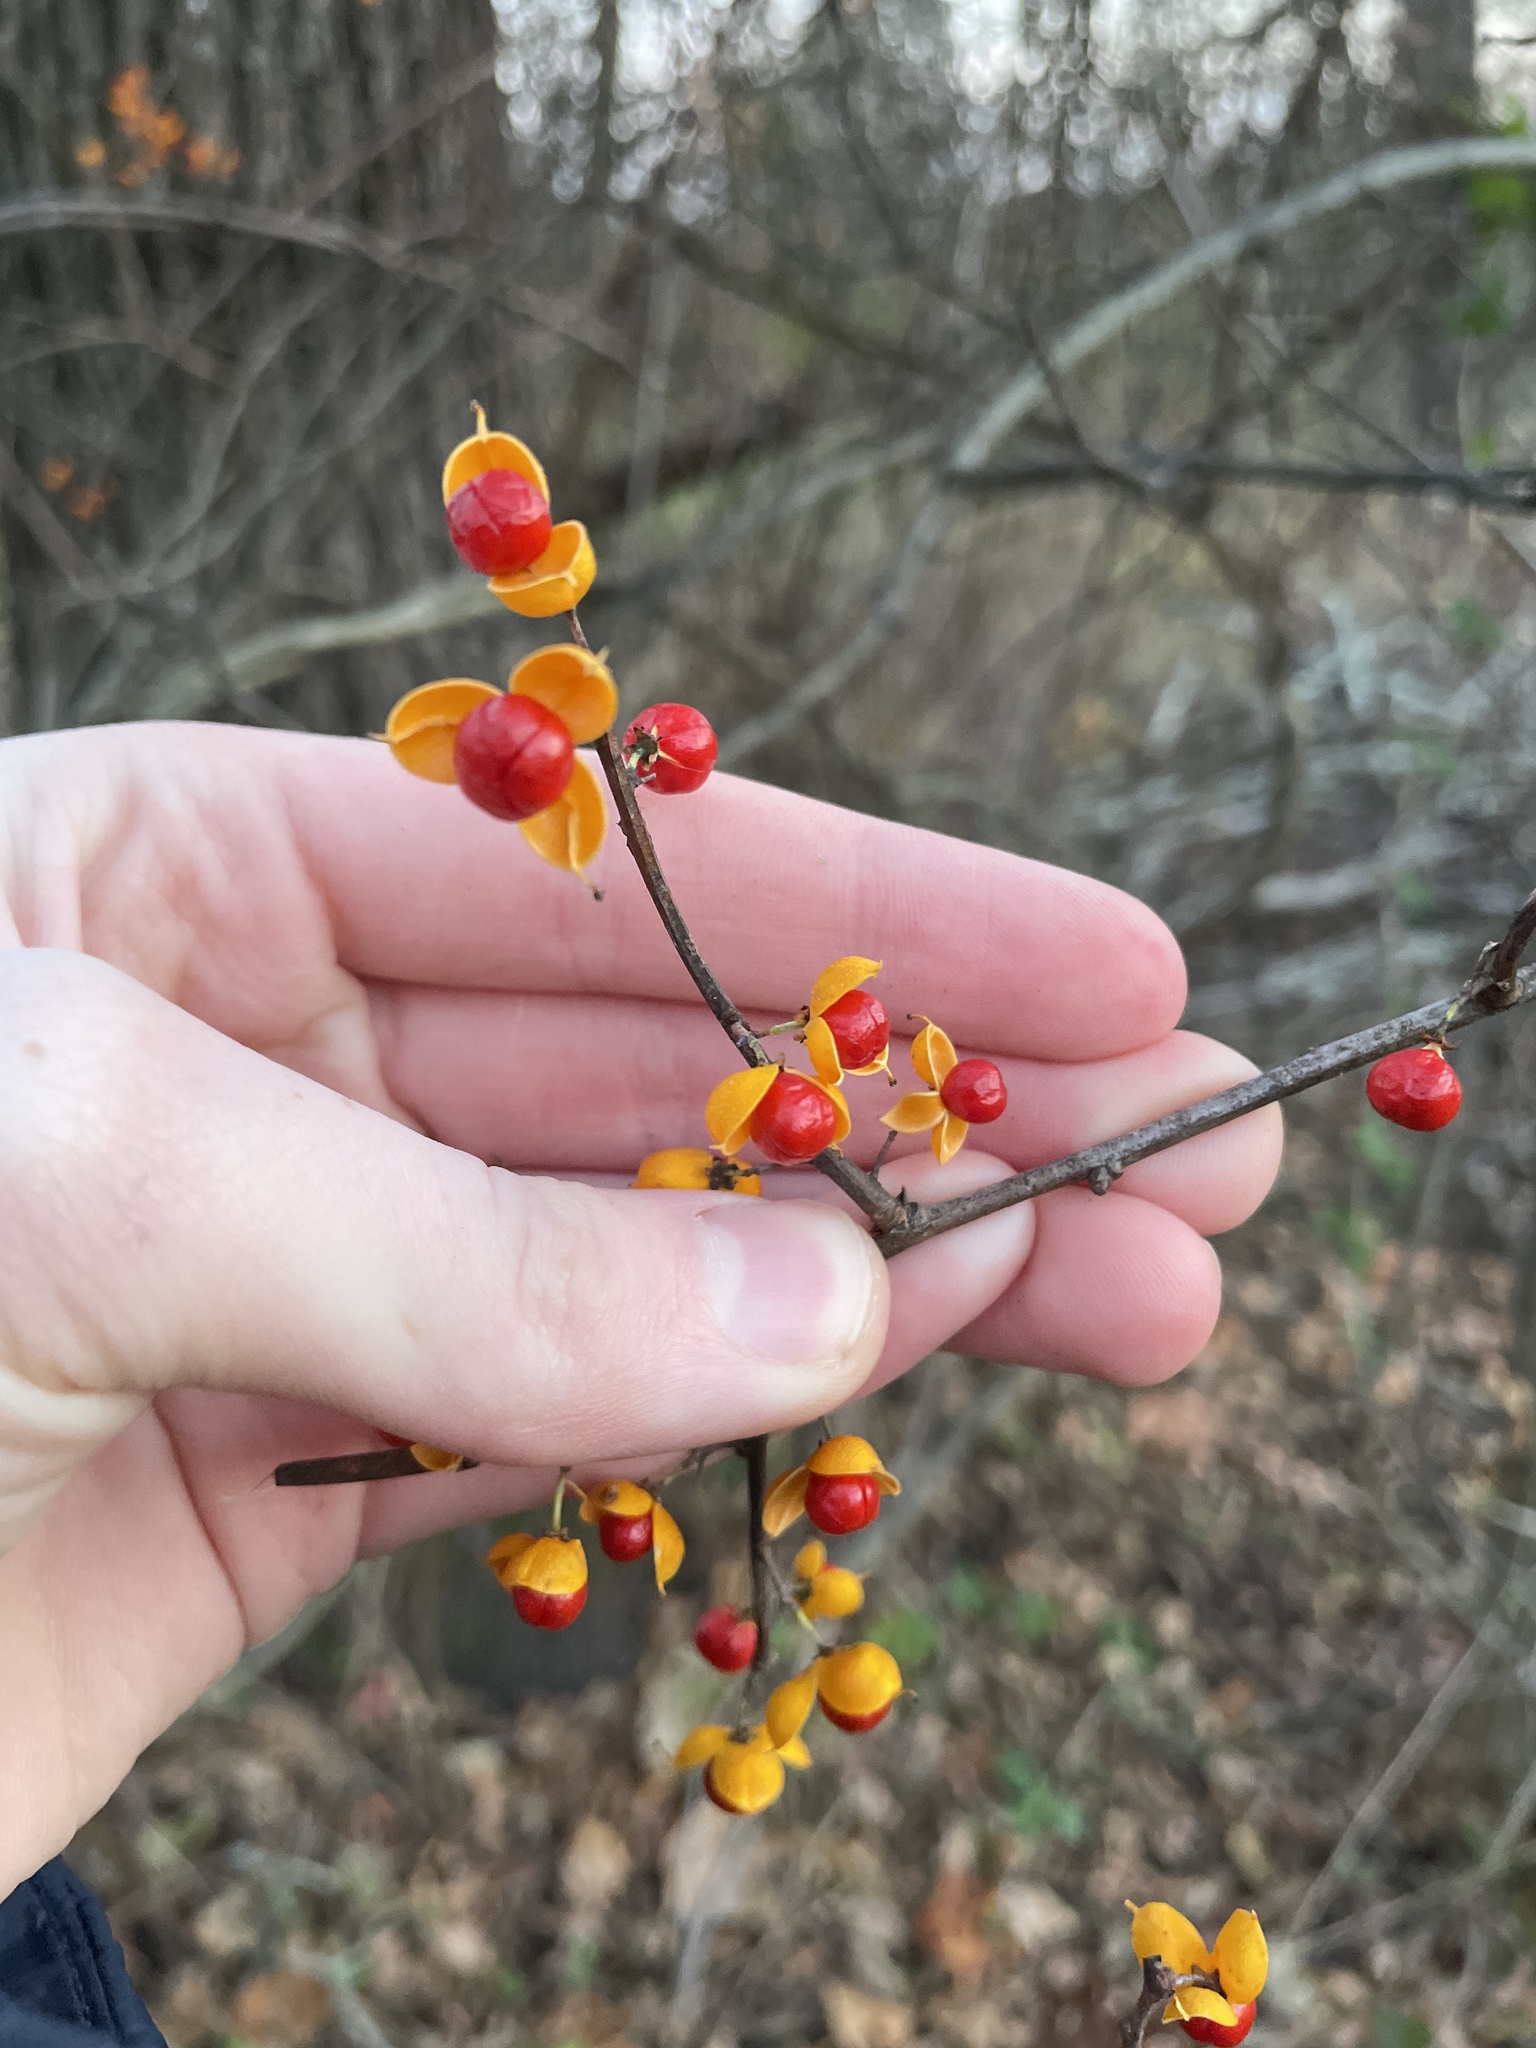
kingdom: Plantae
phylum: Tracheophyta
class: Magnoliopsida
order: Celastrales
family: Celastraceae
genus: Celastrus
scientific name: Celastrus orbiculatus
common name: Oriental bittersweet
